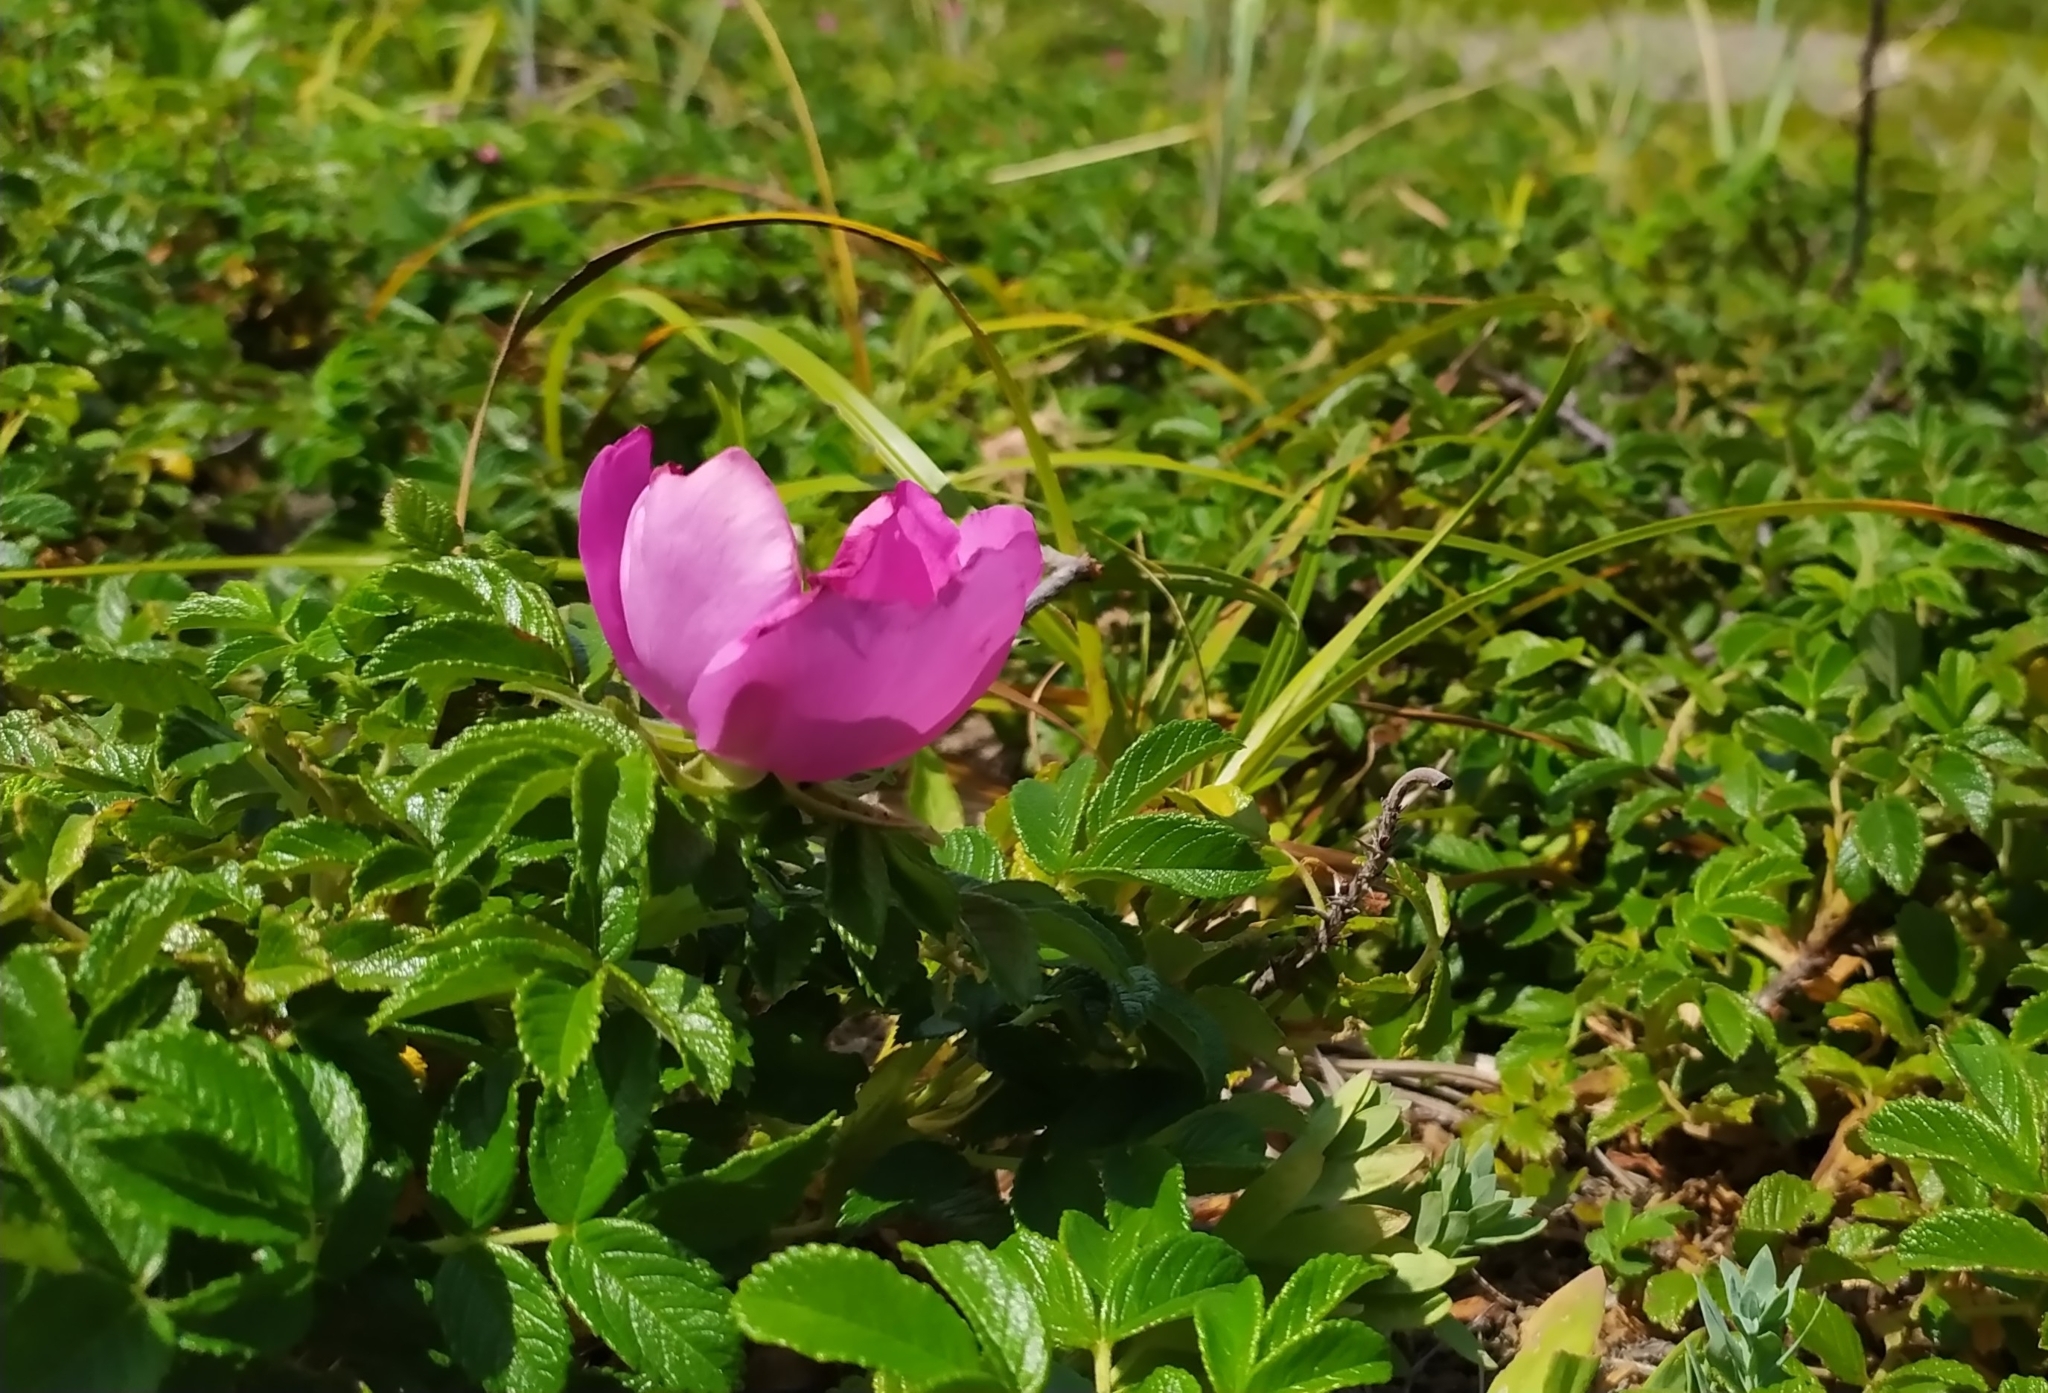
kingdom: Plantae
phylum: Tracheophyta
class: Magnoliopsida
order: Rosales
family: Rosaceae
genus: Rosa
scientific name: Rosa rugosa
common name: Japanese rose
